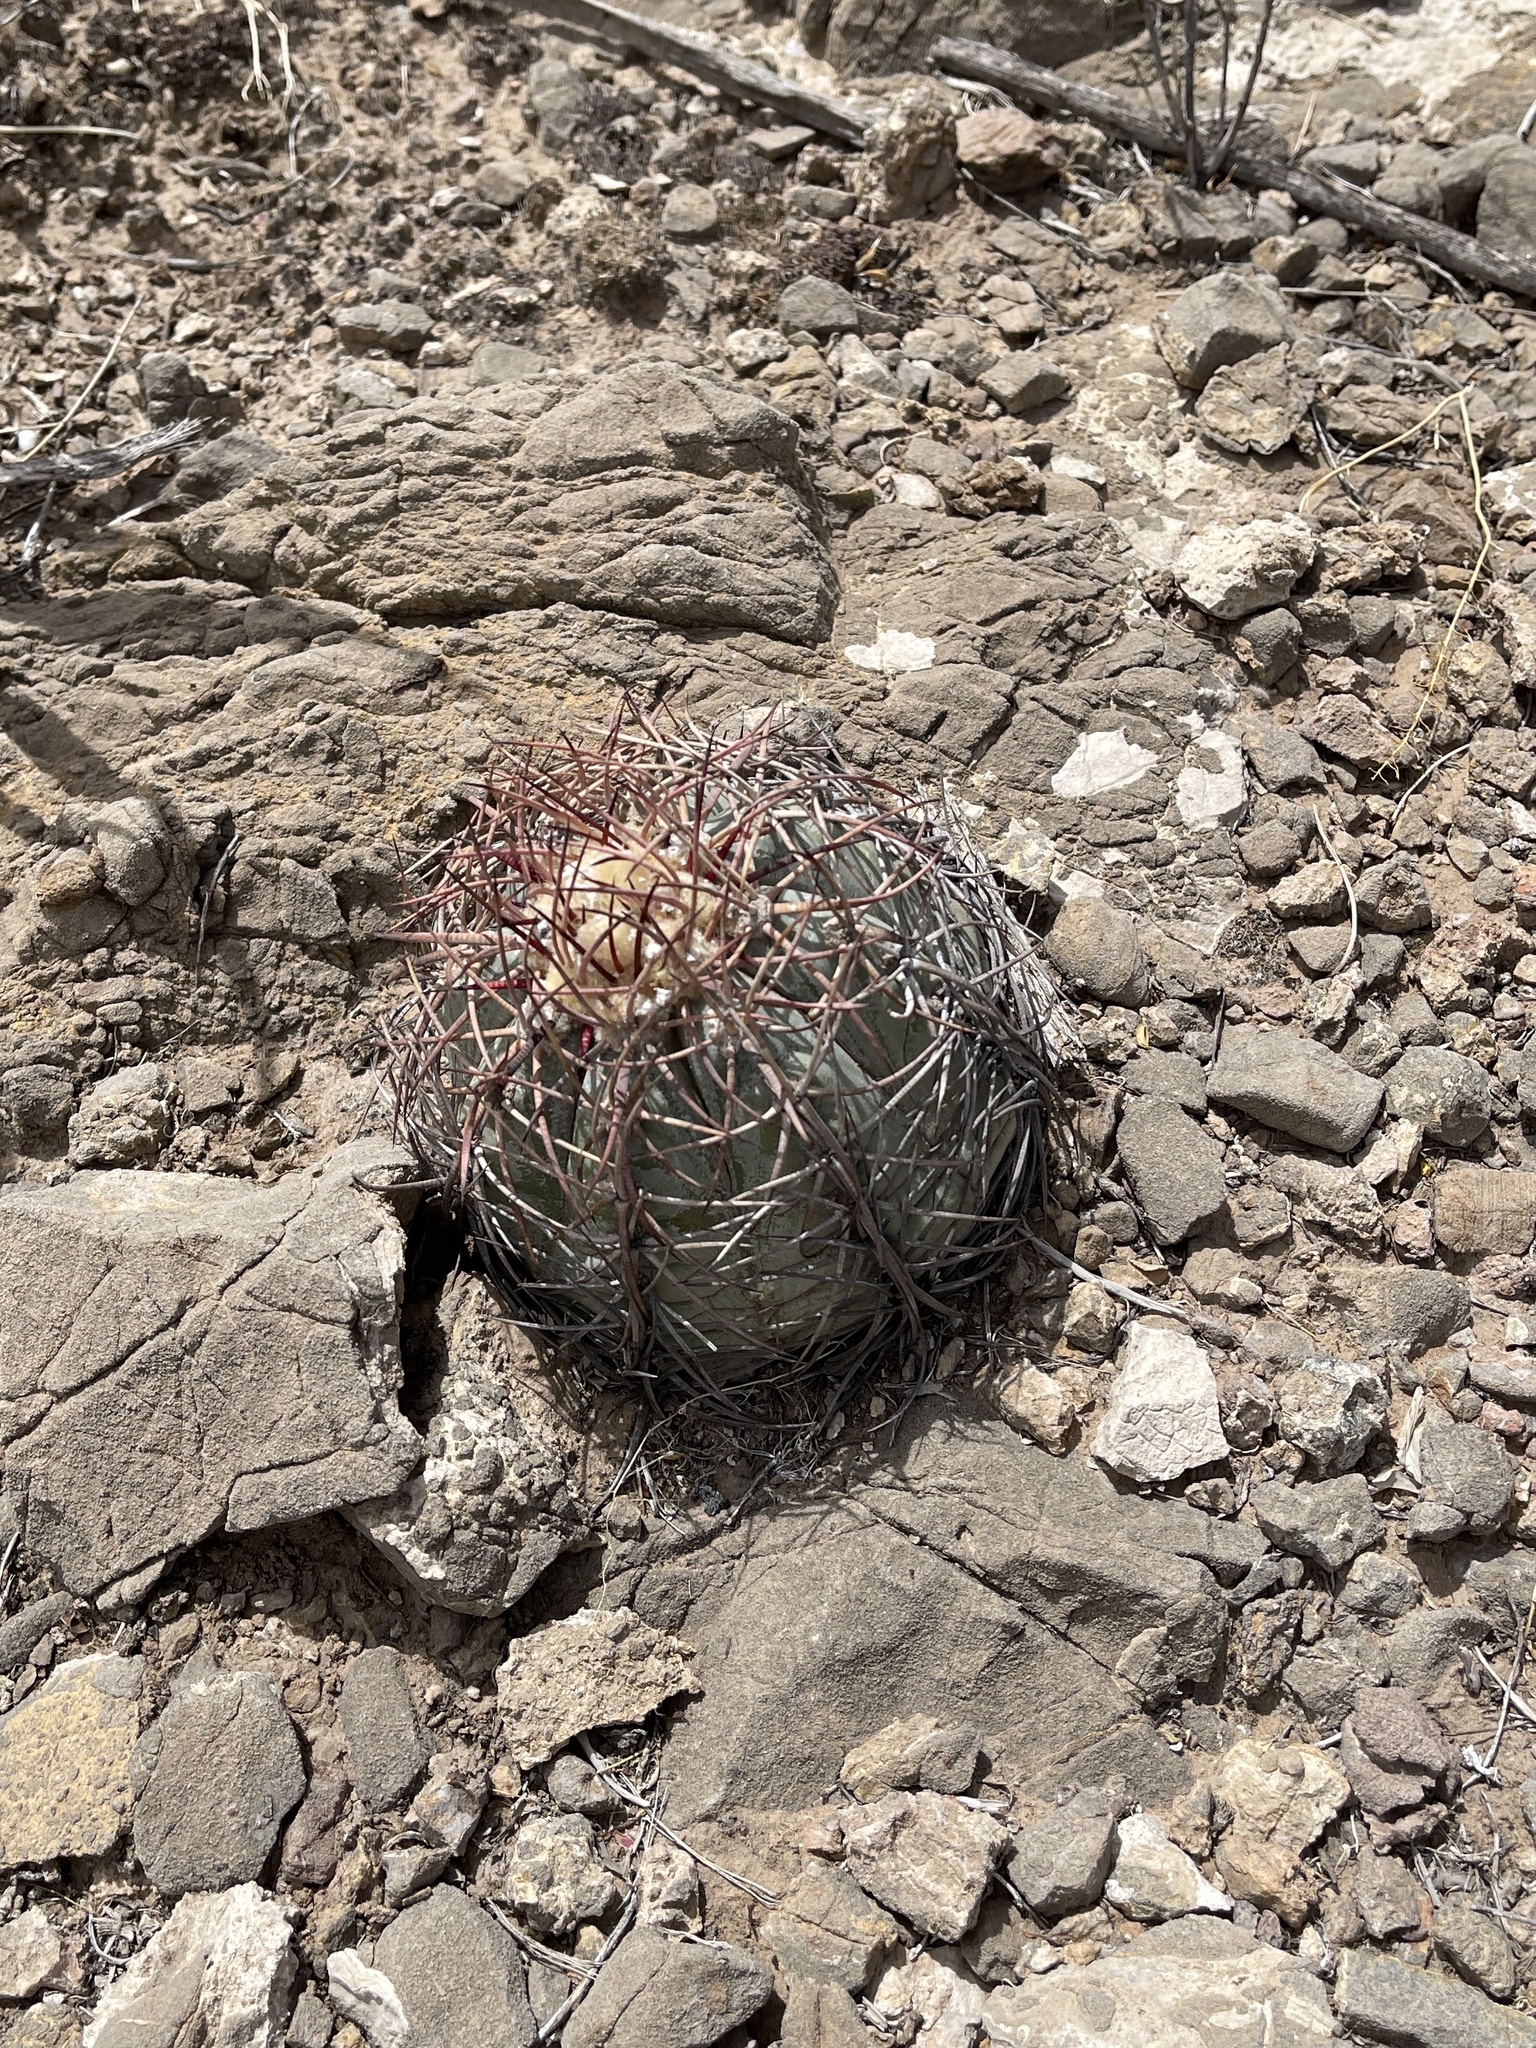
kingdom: Plantae
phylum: Tracheophyta
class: Magnoliopsida
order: Caryophyllales
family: Cactaceae
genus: Echinocactus
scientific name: Echinocactus horizonthalonius
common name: Devilshead
